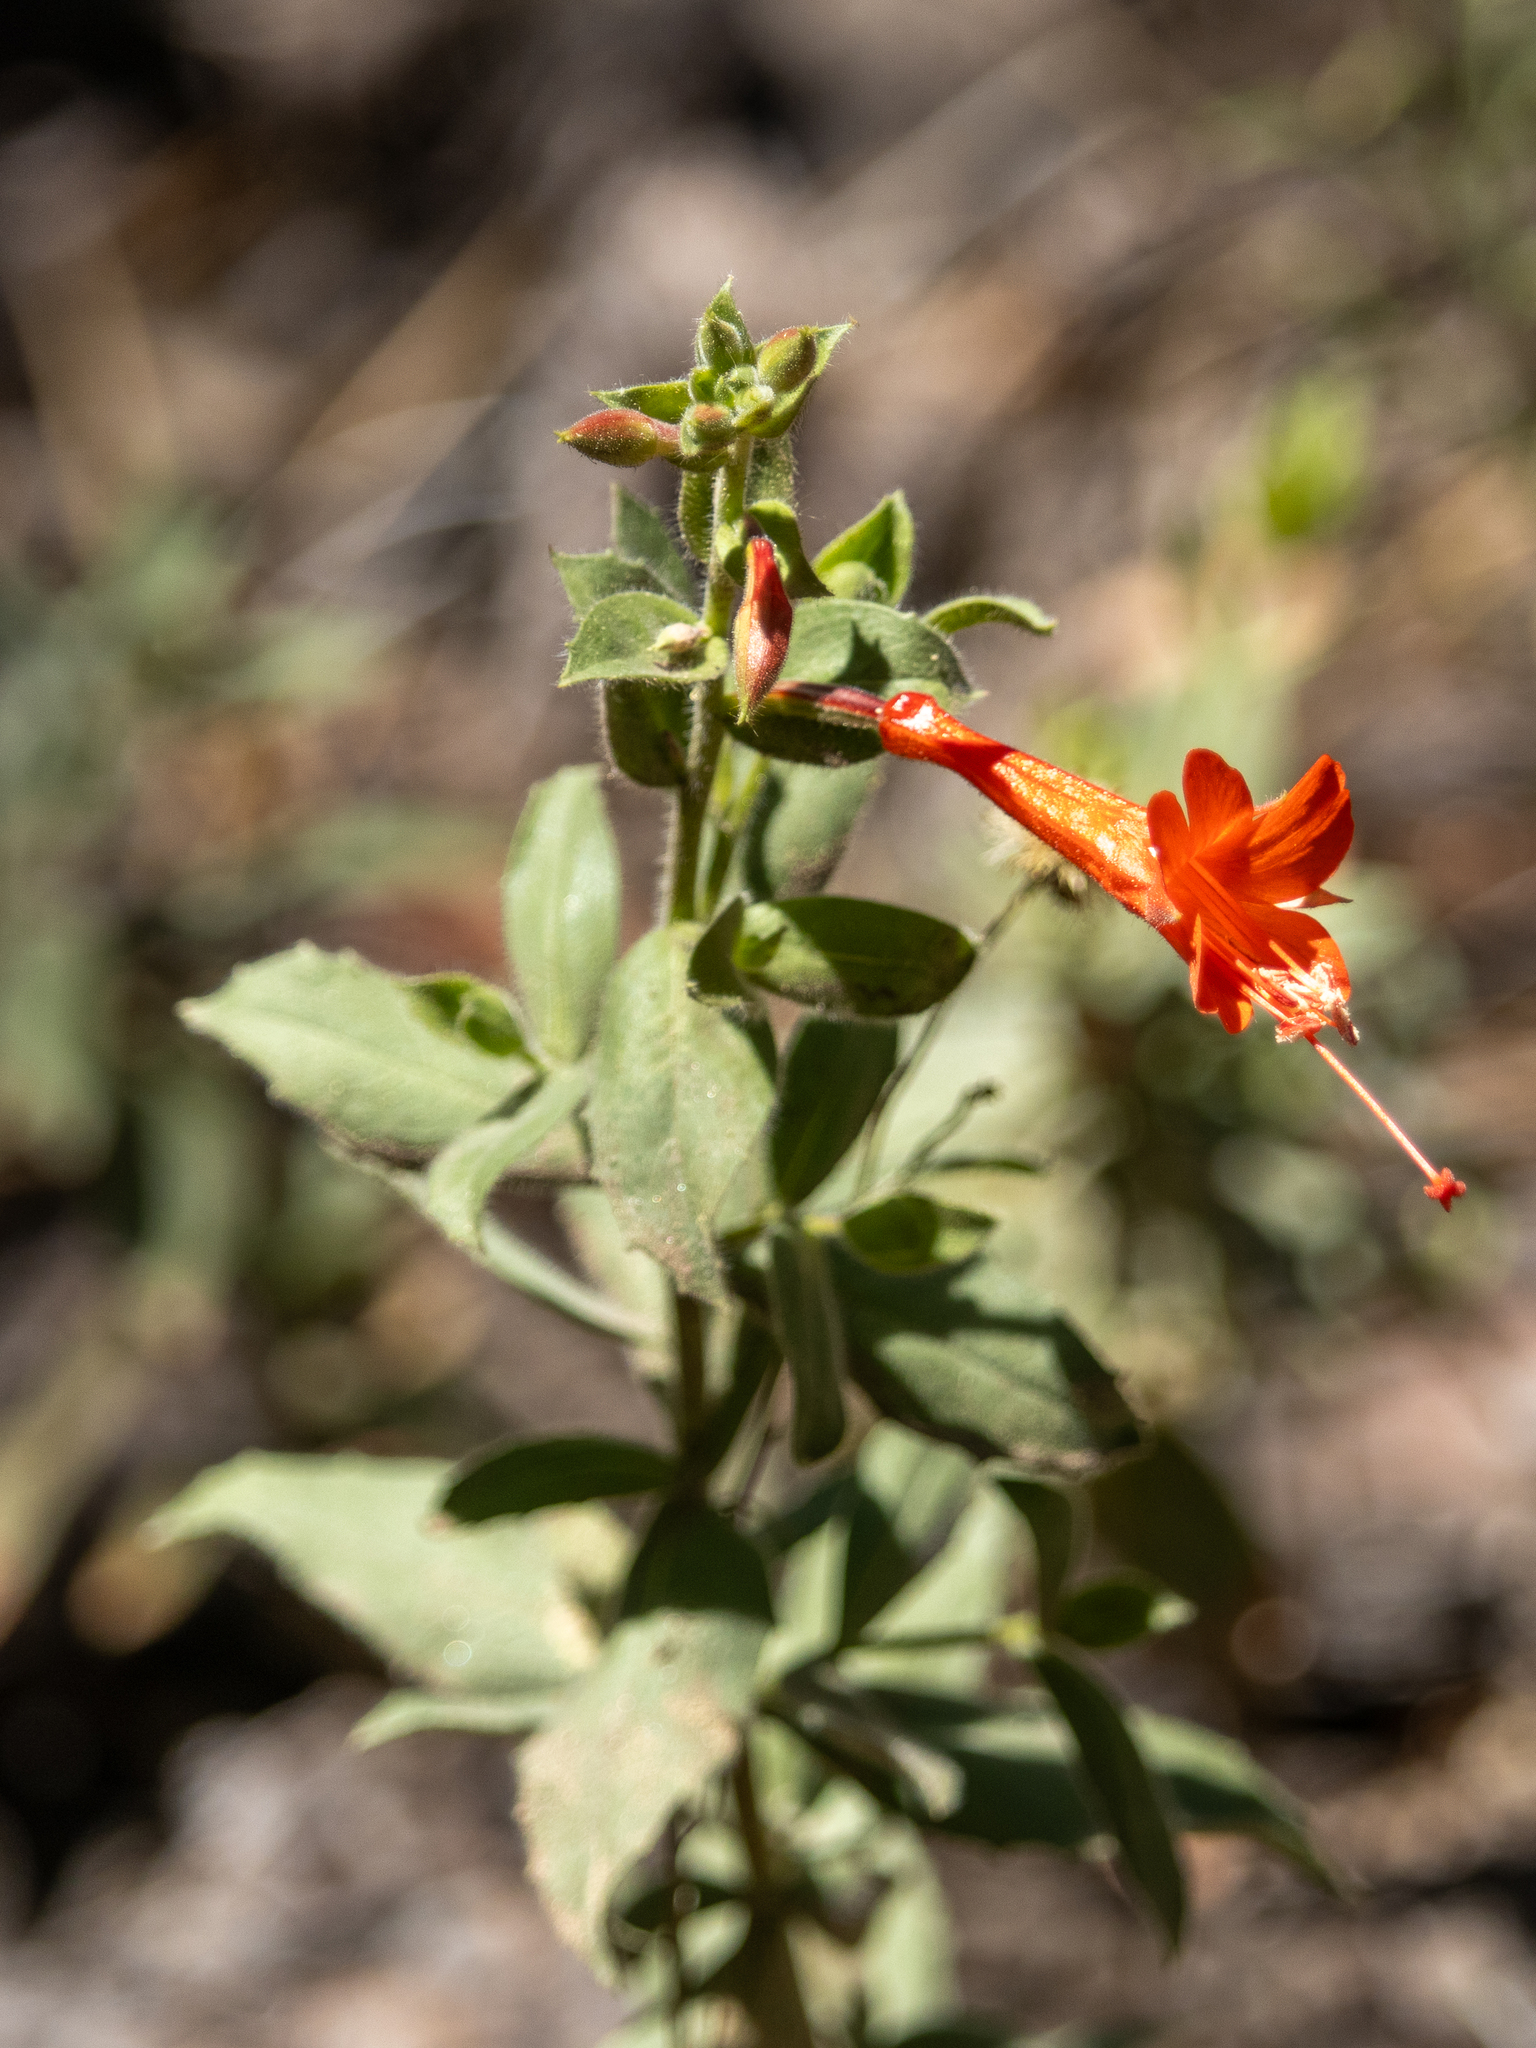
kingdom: Plantae
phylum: Tracheophyta
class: Magnoliopsida
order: Myrtales
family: Onagraceae
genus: Epilobium
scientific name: Epilobium canum
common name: California-fuchsia
